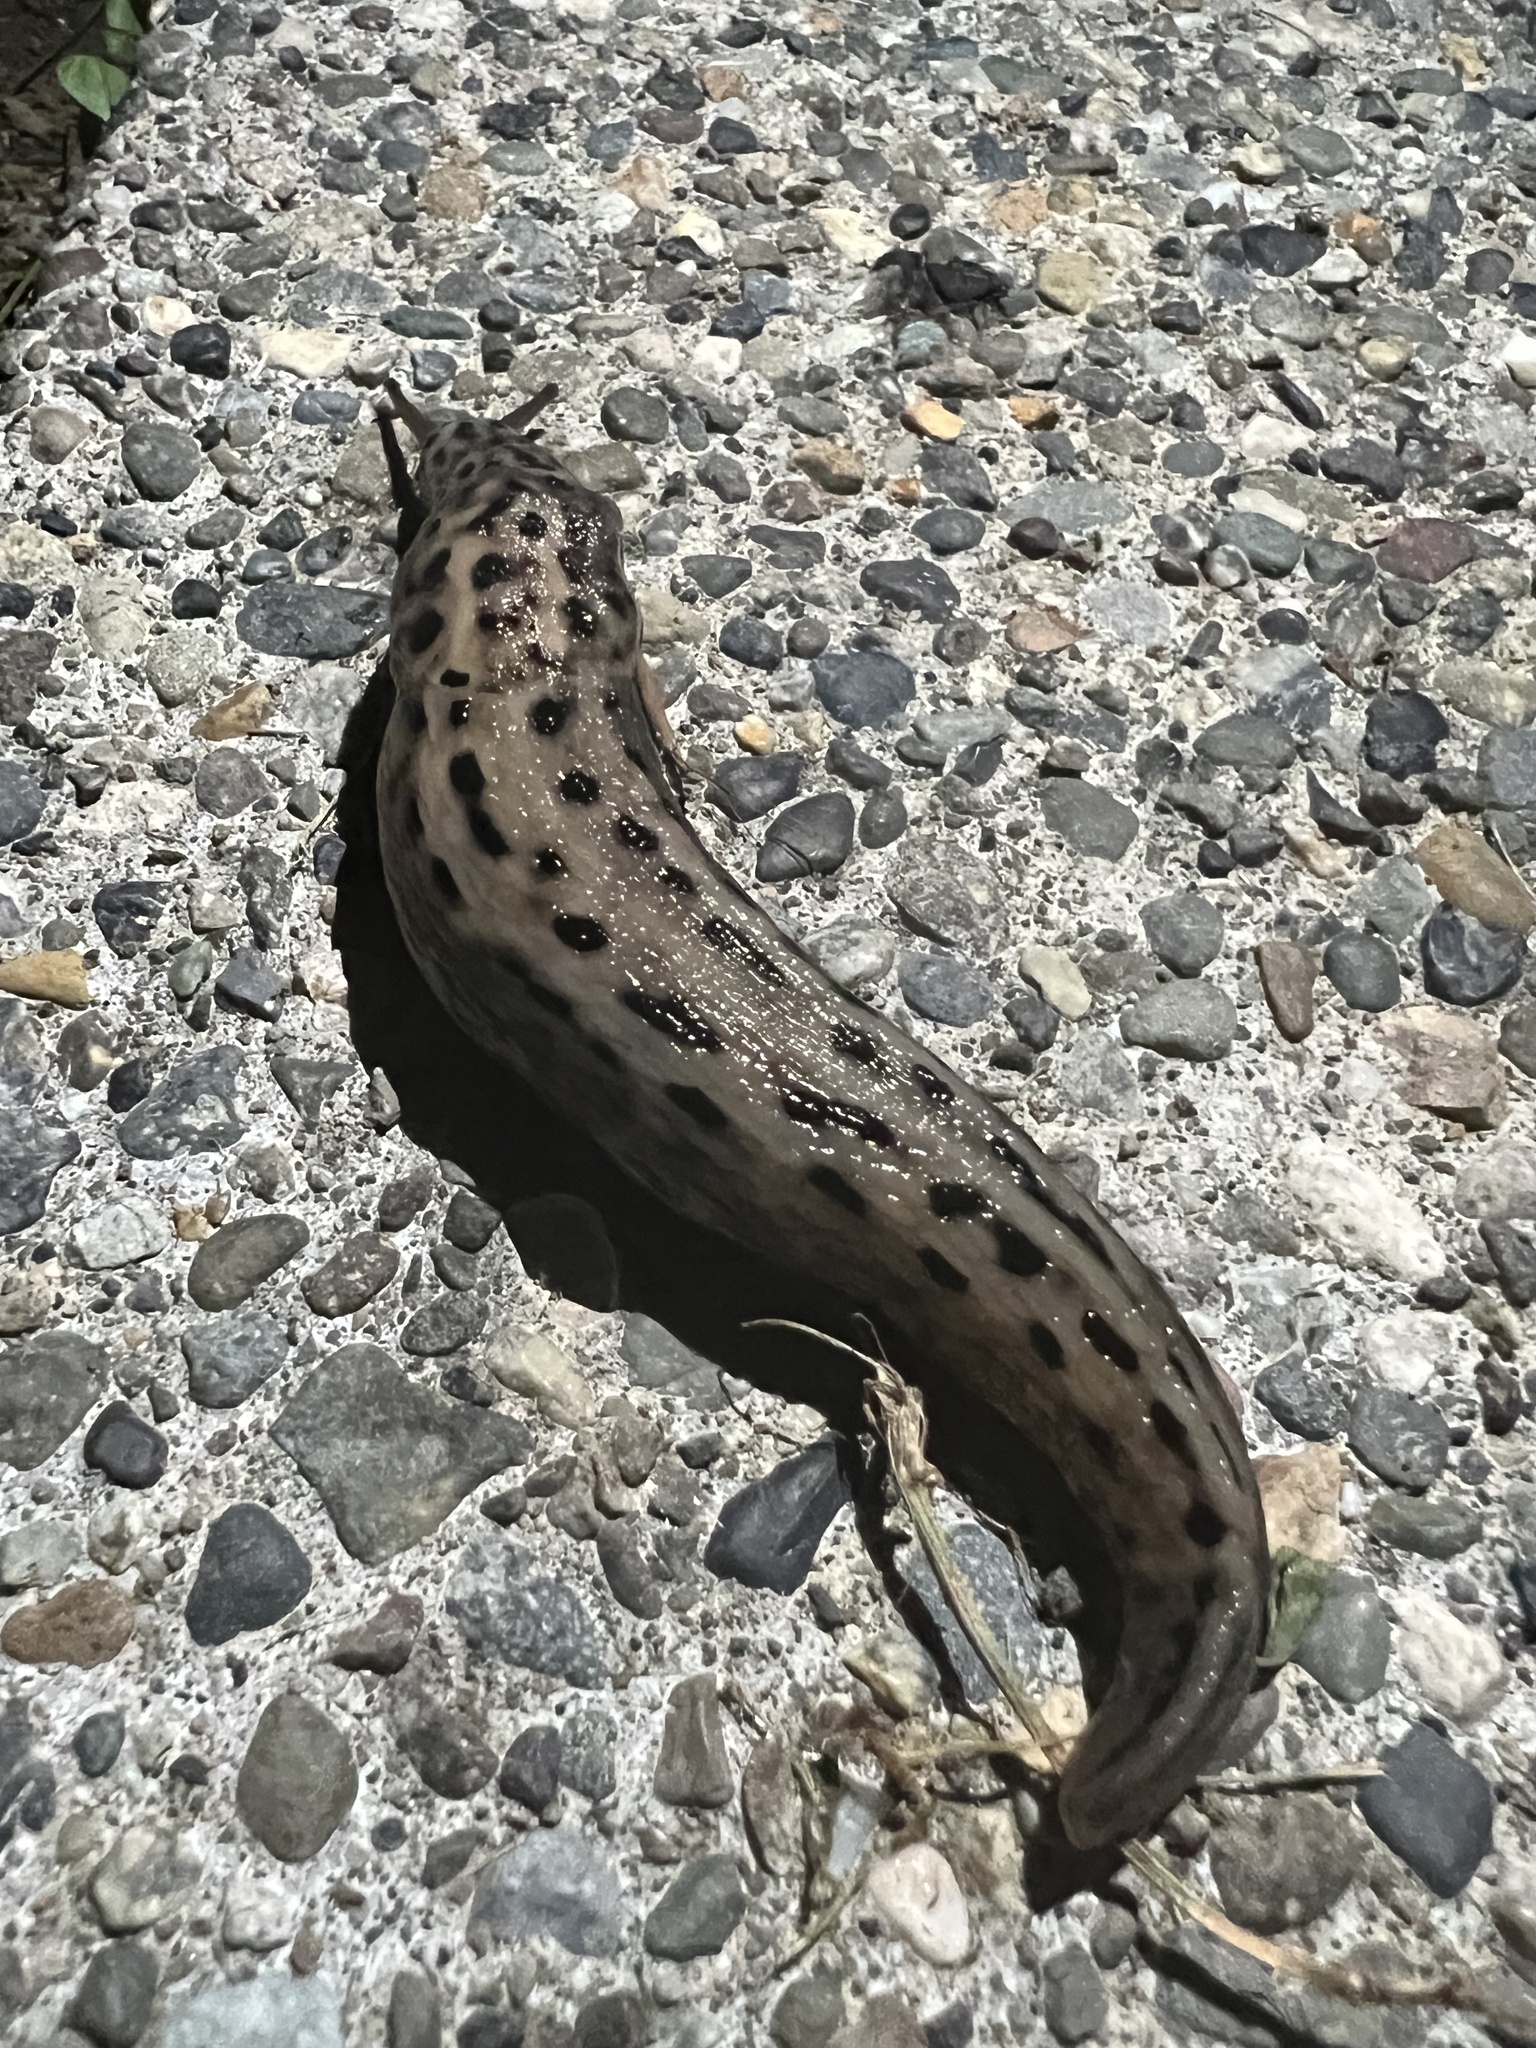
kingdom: Animalia
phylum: Mollusca
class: Gastropoda
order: Stylommatophora
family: Limacidae
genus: Limax
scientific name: Limax maximus
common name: Great grey slug
